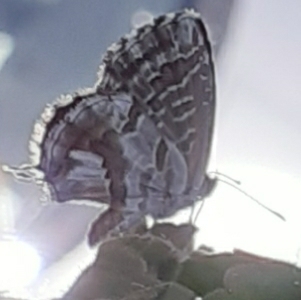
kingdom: Animalia
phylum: Arthropoda
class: Insecta
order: Lepidoptera
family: Lycaenidae
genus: Cacyreus
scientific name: Cacyreus marshalli
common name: Geranium bronze
